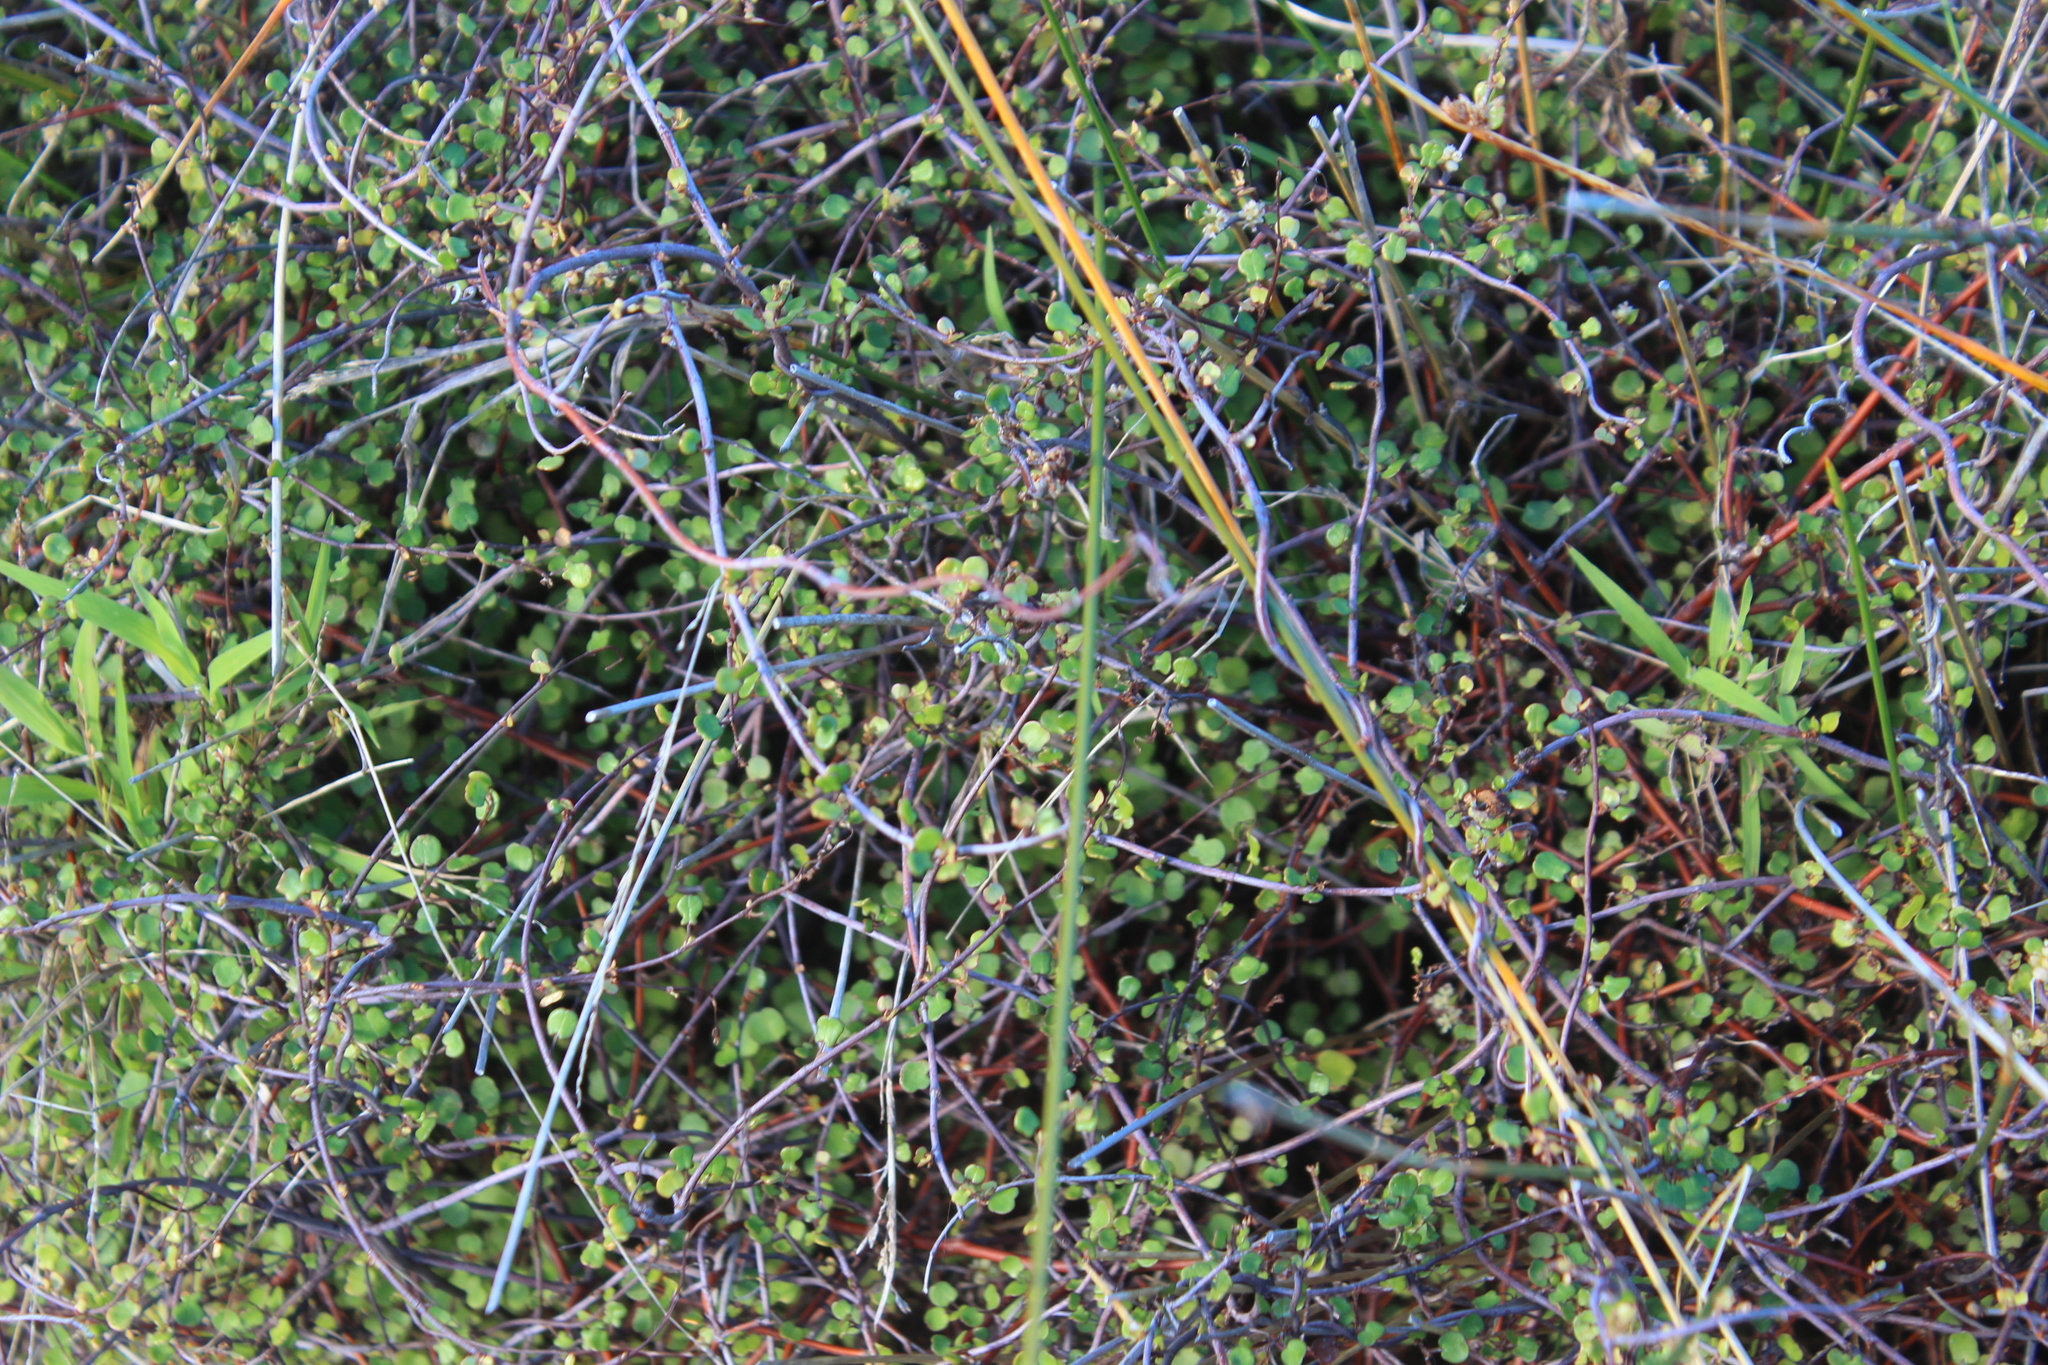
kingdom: Plantae
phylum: Tracheophyta
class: Magnoliopsida
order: Caryophyllales
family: Polygonaceae
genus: Muehlenbeckia
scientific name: Muehlenbeckia complexa
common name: Wireplant
